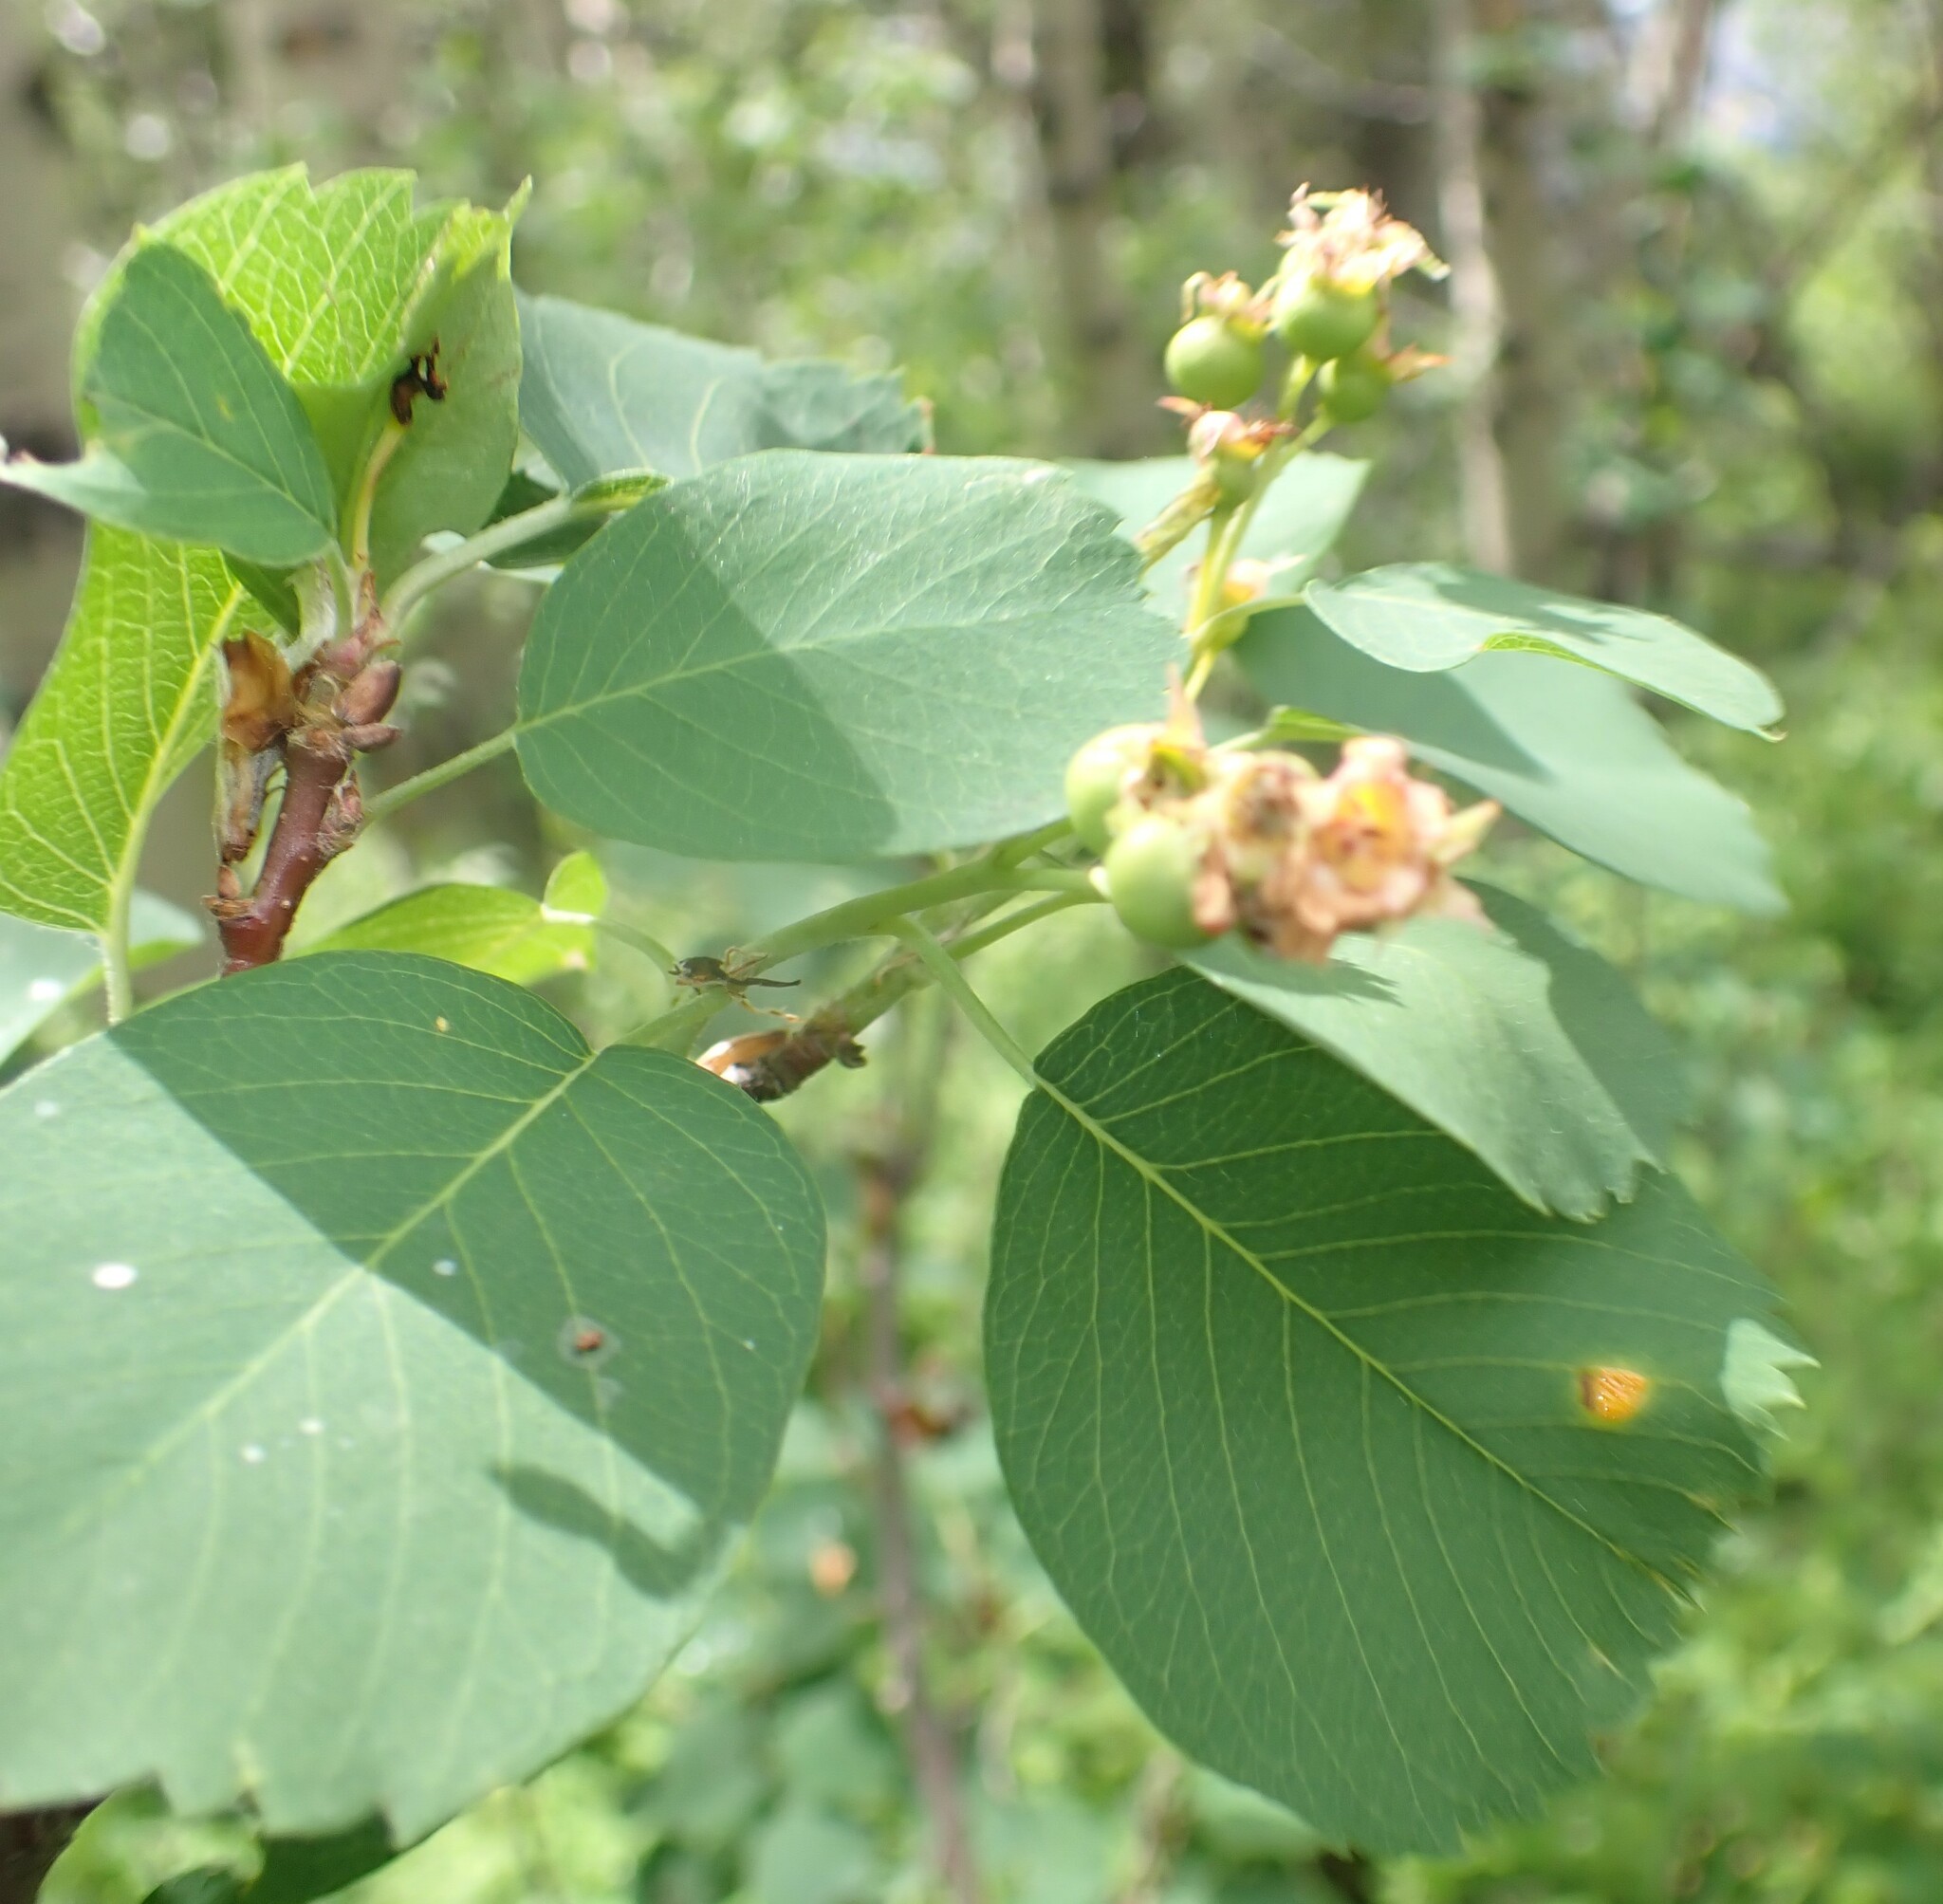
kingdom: Plantae
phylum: Tracheophyta
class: Magnoliopsida
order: Rosales
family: Rosaceae
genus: Amelanchier
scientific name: Amelanchier alnifolia
